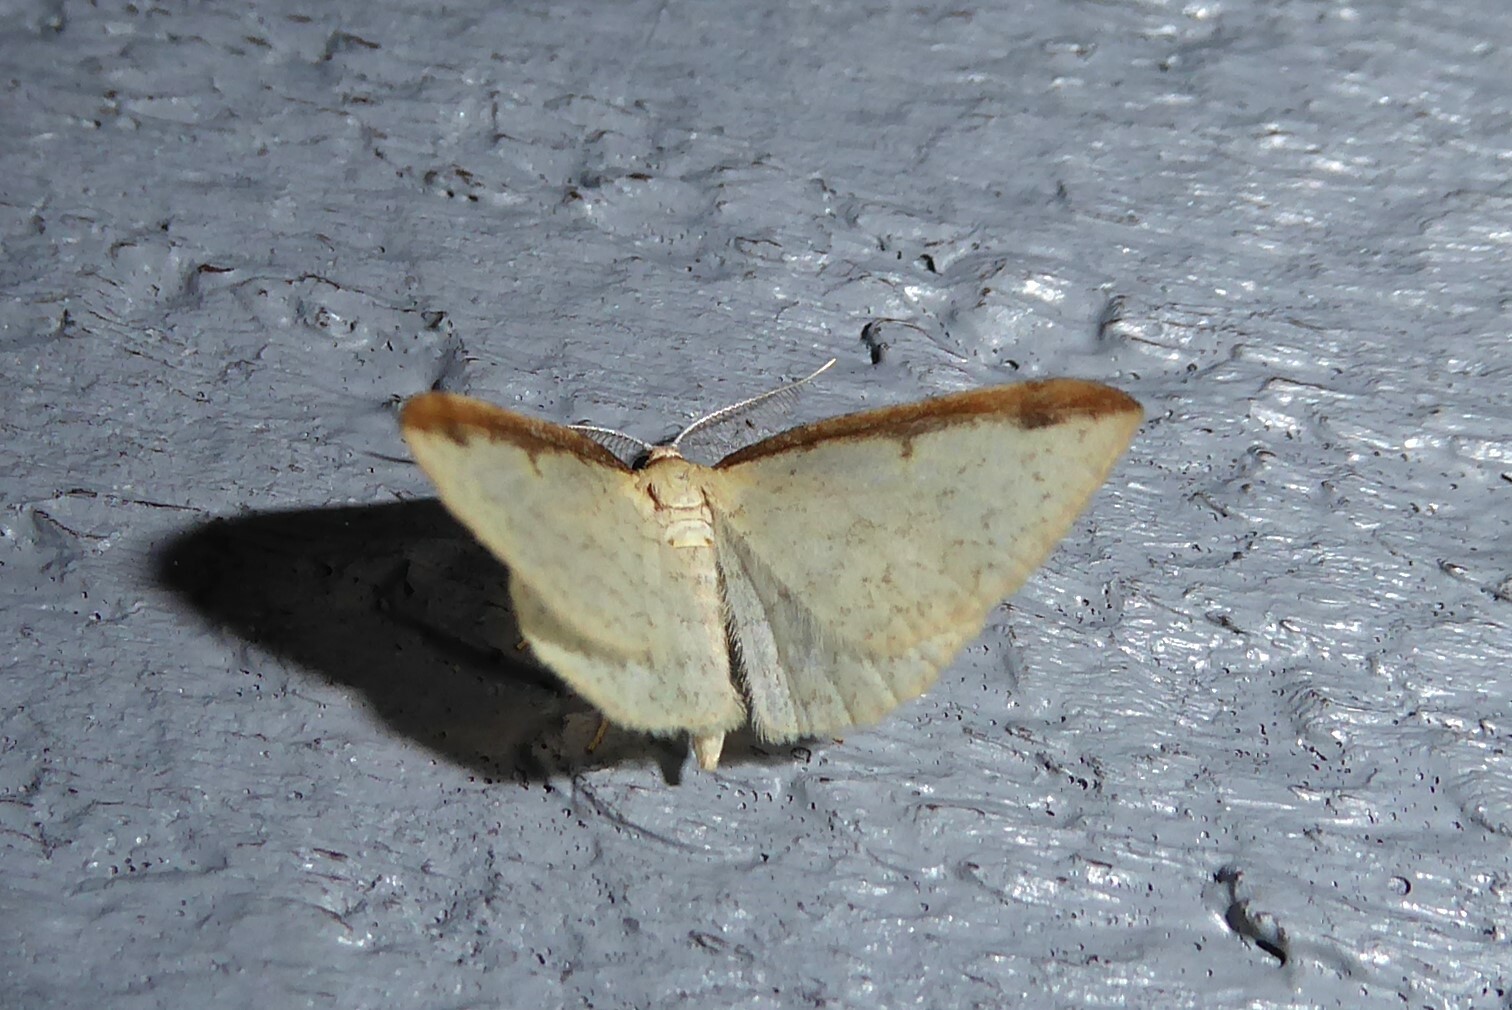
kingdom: Animalia
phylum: Arthropoda
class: Insecta
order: Lepidoptera
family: Geometridae
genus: Epiphryne
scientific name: Epiphryne undosata
